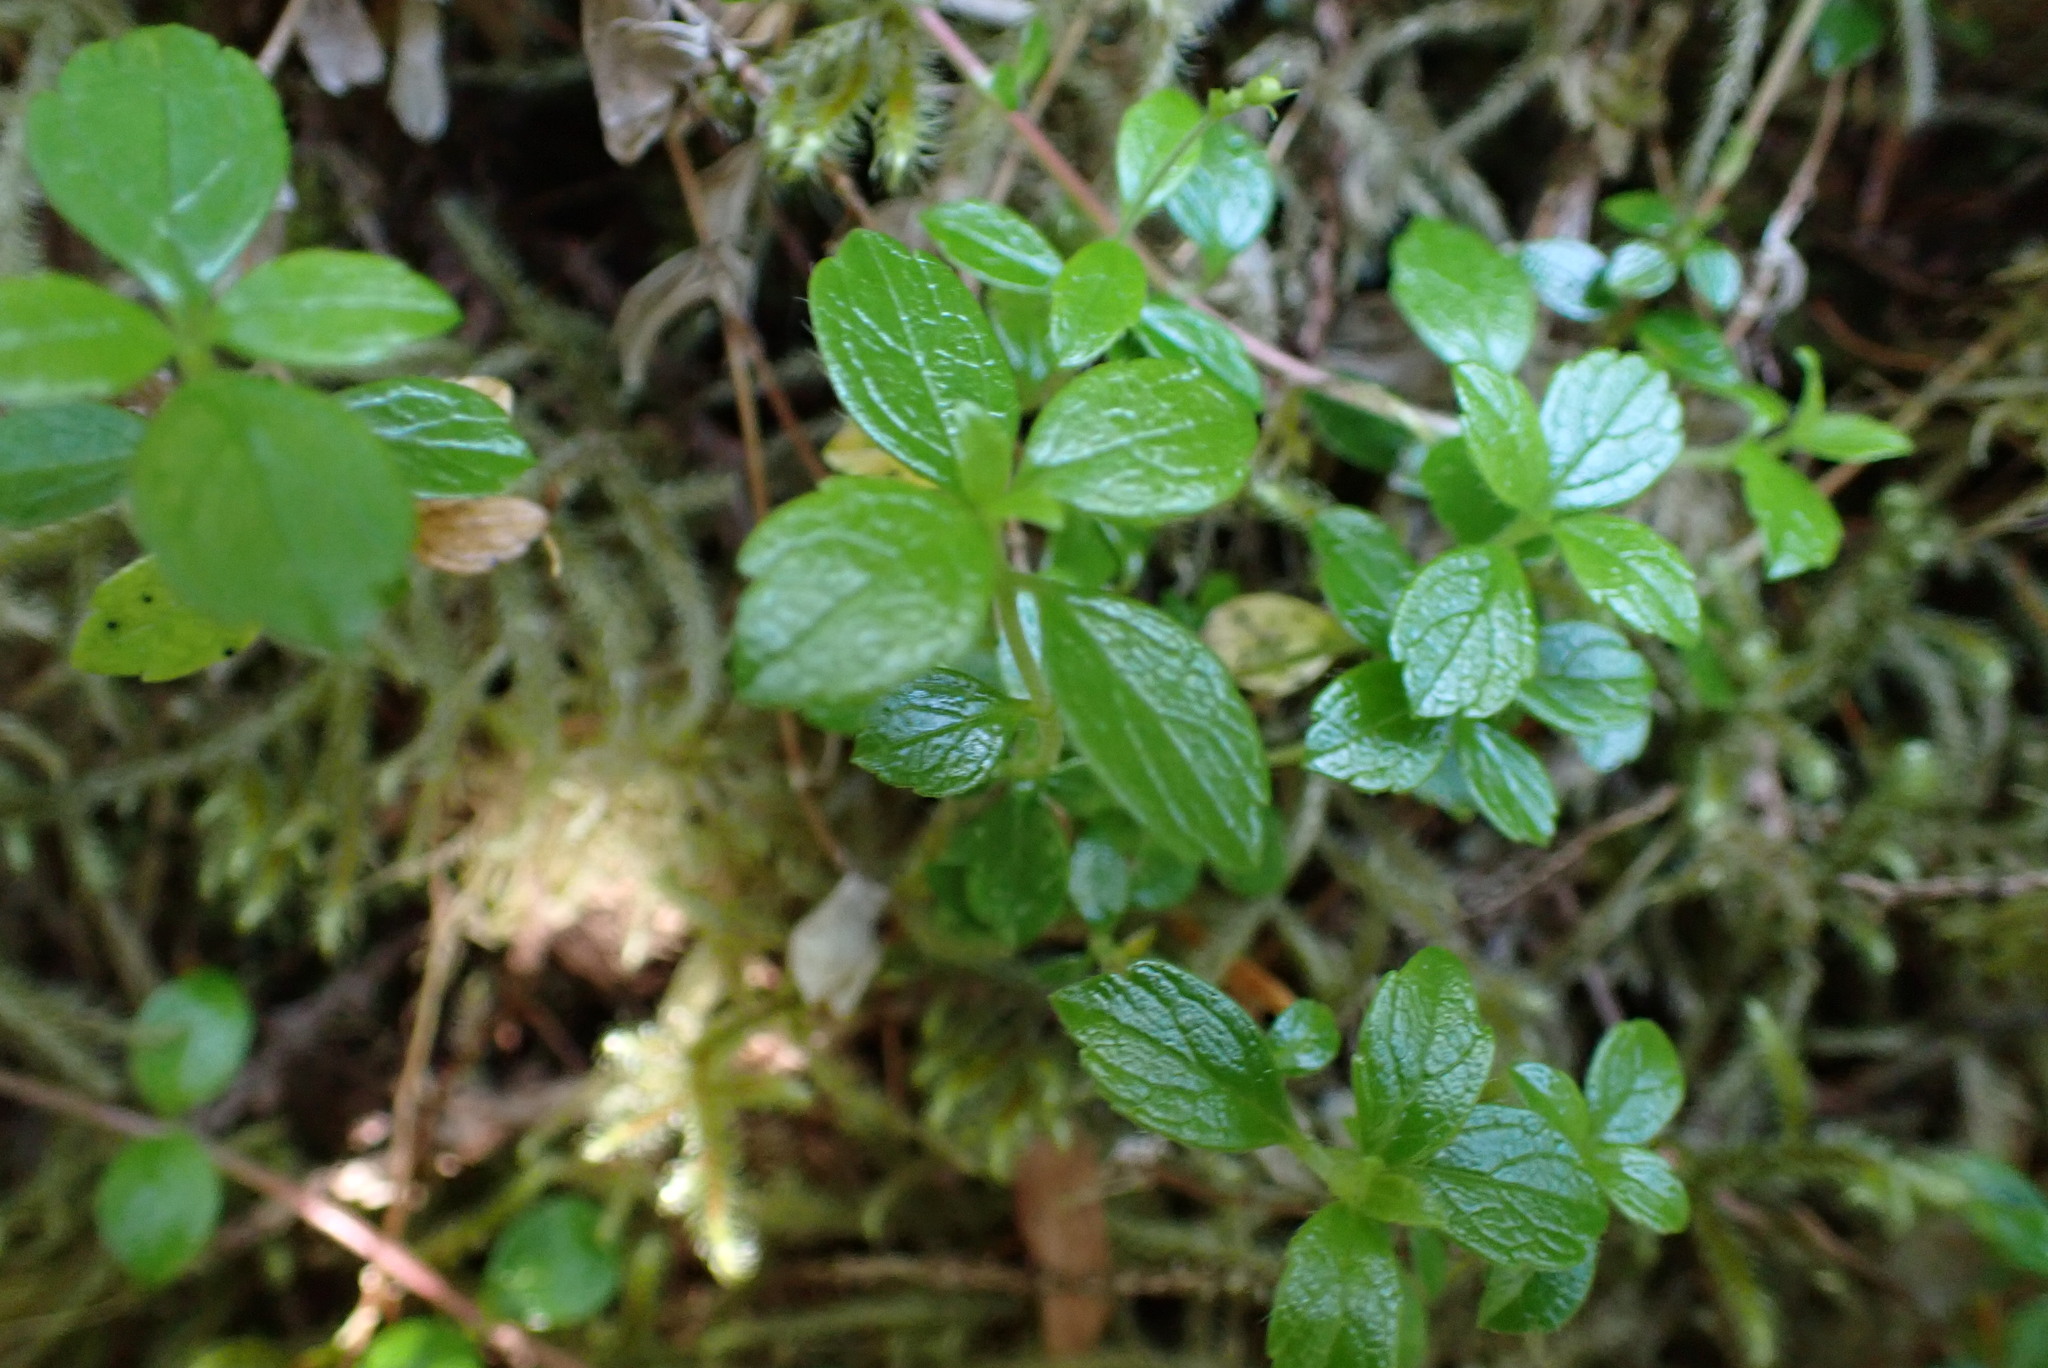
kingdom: Plantae
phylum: Tracheophyta
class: Magnoliopsida
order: Dipsacales
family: Caprifoliaceae
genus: Linnaea
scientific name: Linnaea borealis
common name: Twinflower
